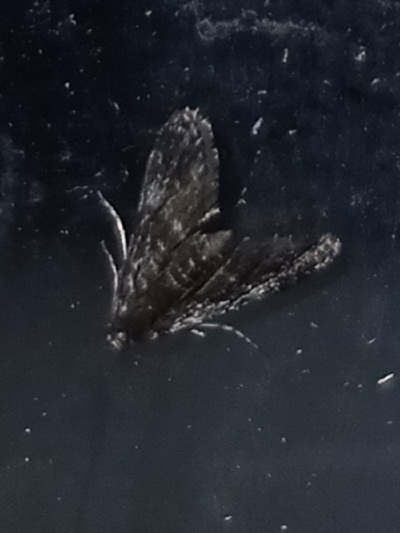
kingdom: Animalia
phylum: Arthropoda
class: Insecta
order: Lepidoptera
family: Crambidae
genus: Elophila
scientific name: Elophila tinealis
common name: Black duckweed moth
